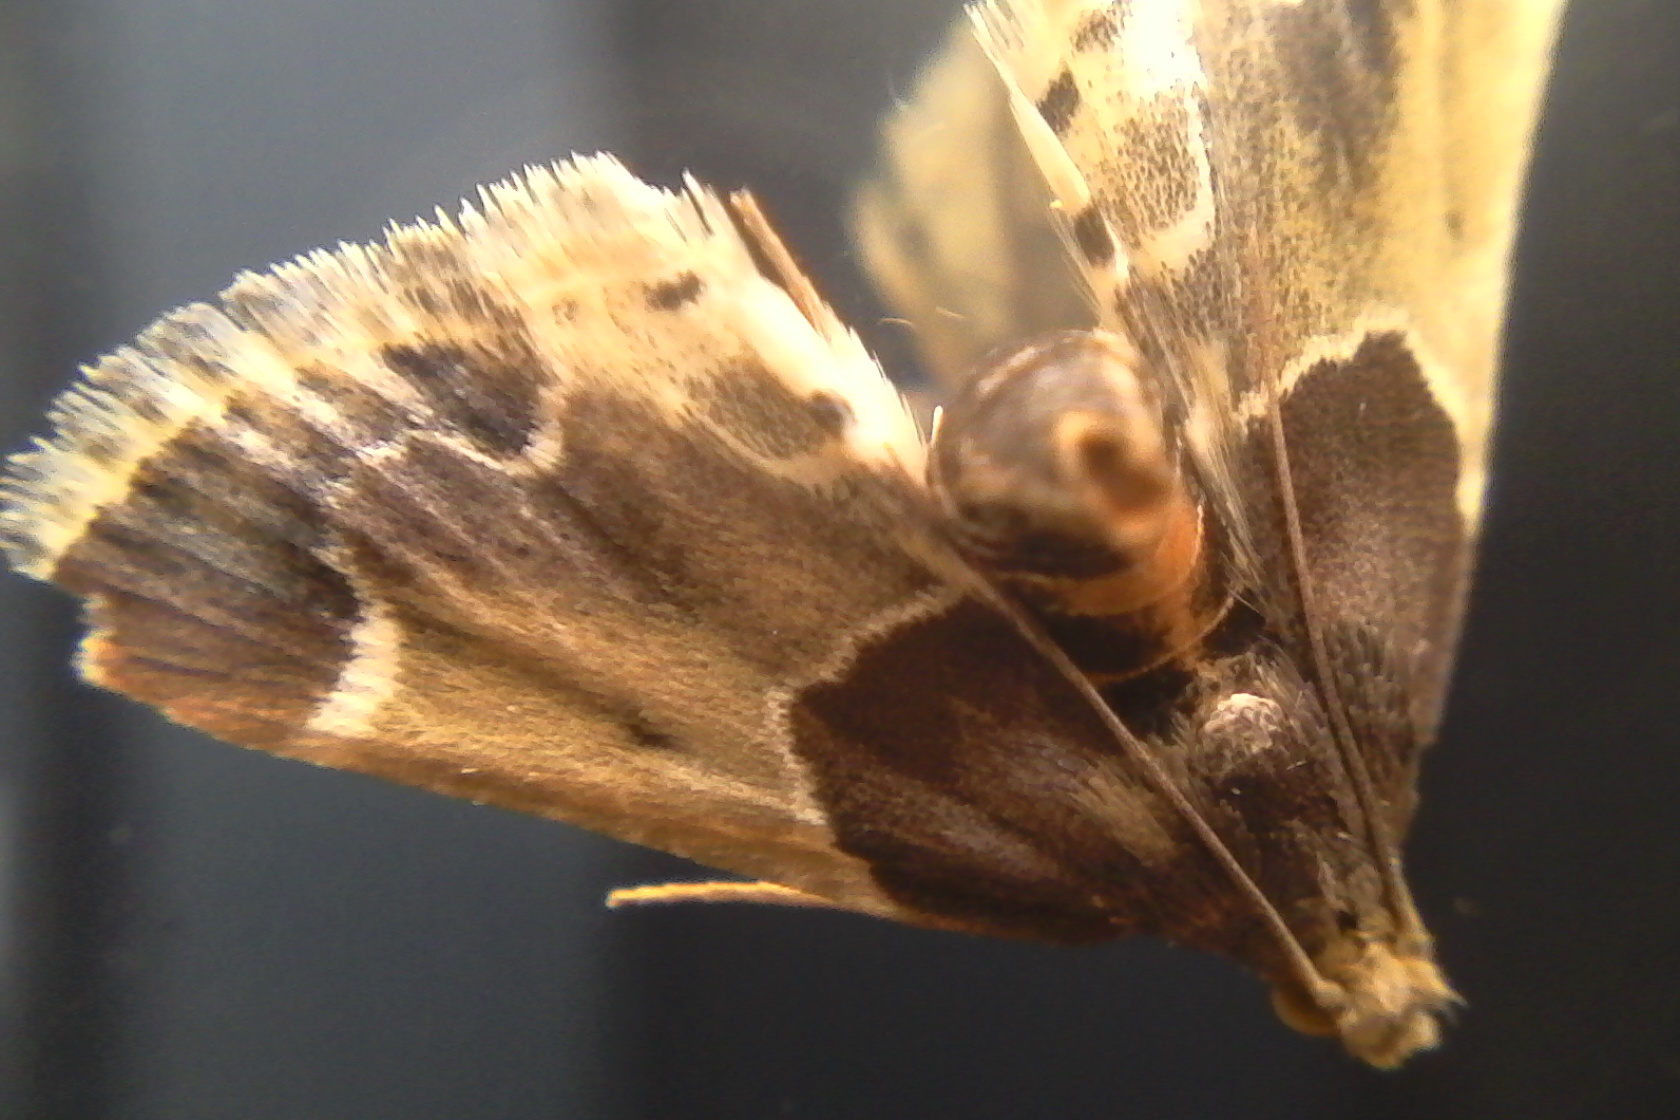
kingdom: Animalia
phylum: Arthropoda
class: Insecta
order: Lepidoptera
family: Pyralidae
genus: Pyralis
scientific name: Pyralis farinalis
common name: Meal moth
